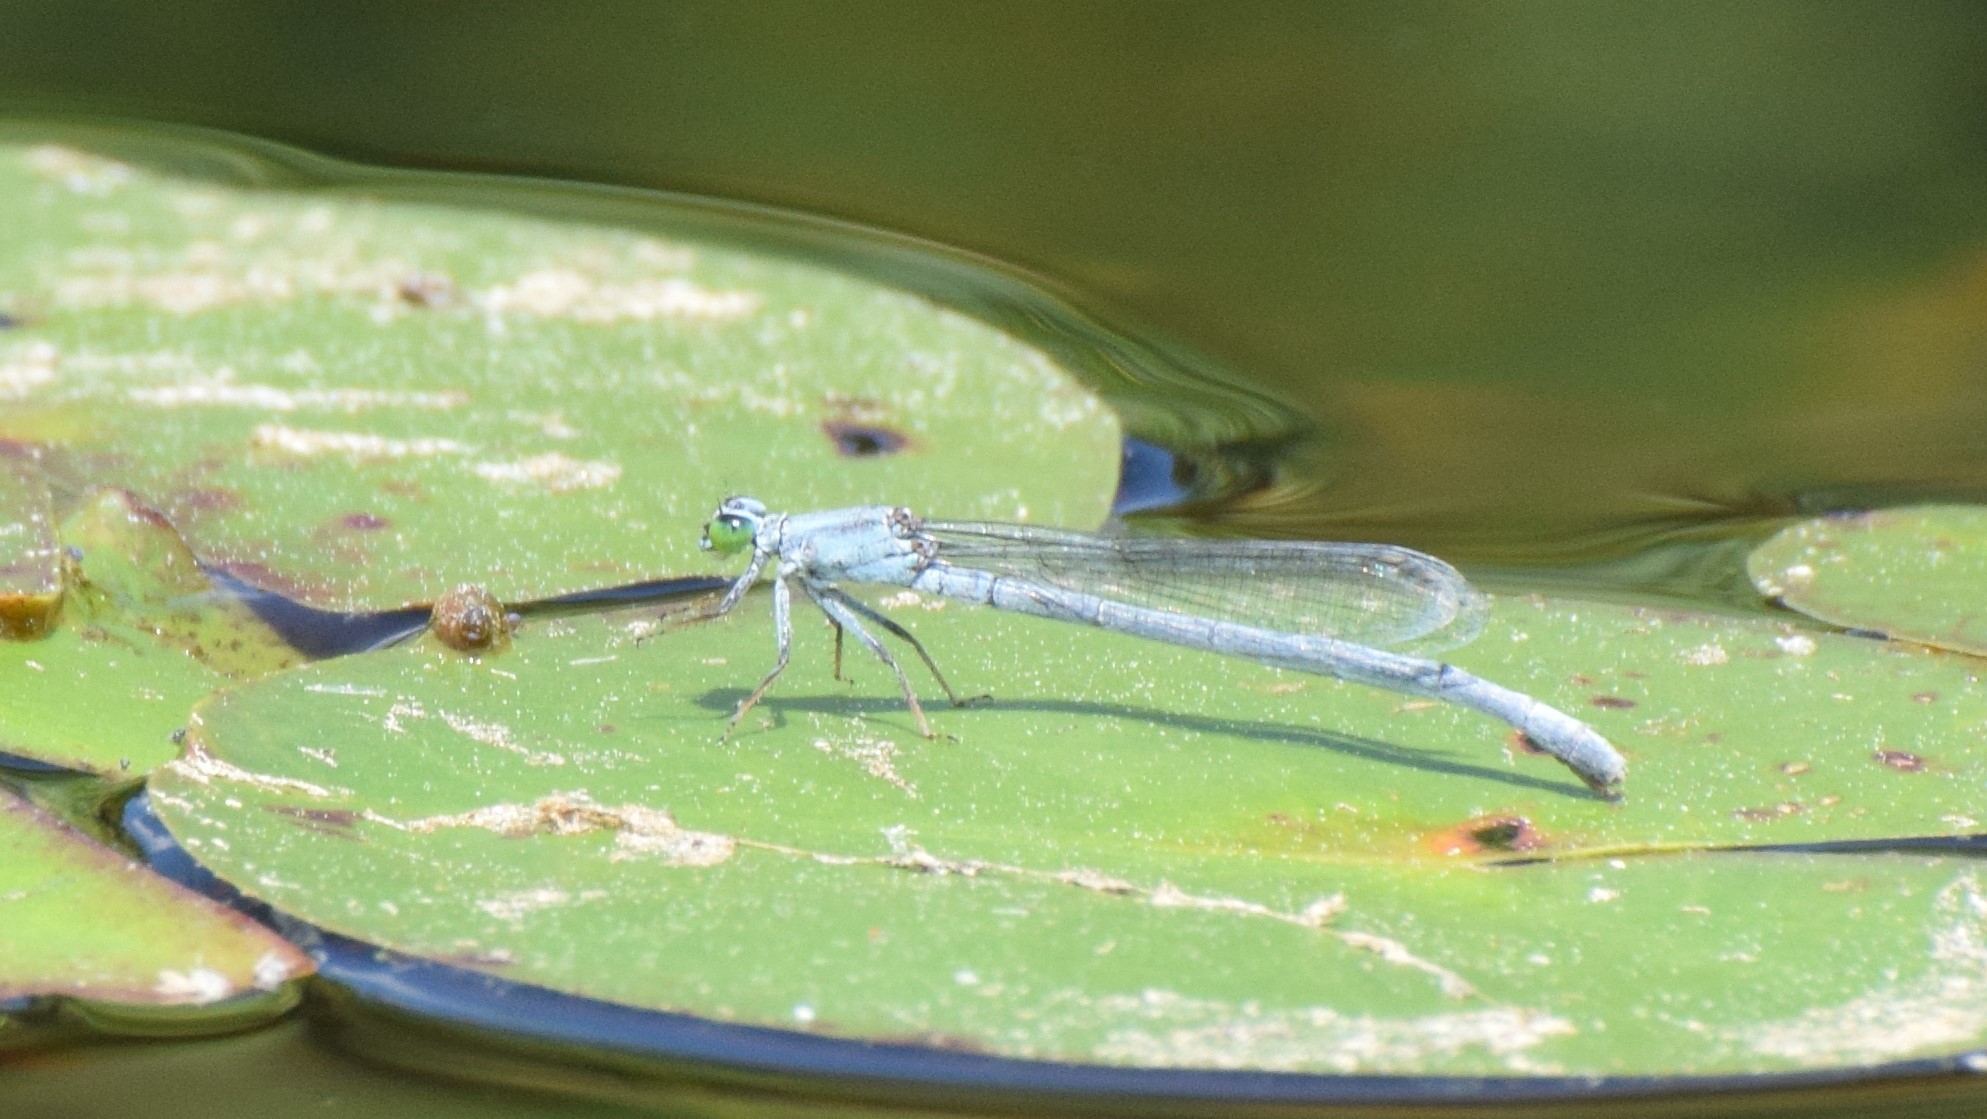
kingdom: Animalia
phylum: Arthropoda
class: Insecta
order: Odonata
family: Coenagrionidae
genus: Ischnura
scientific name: Ischnura kellicotti
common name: Lilypad forktail
